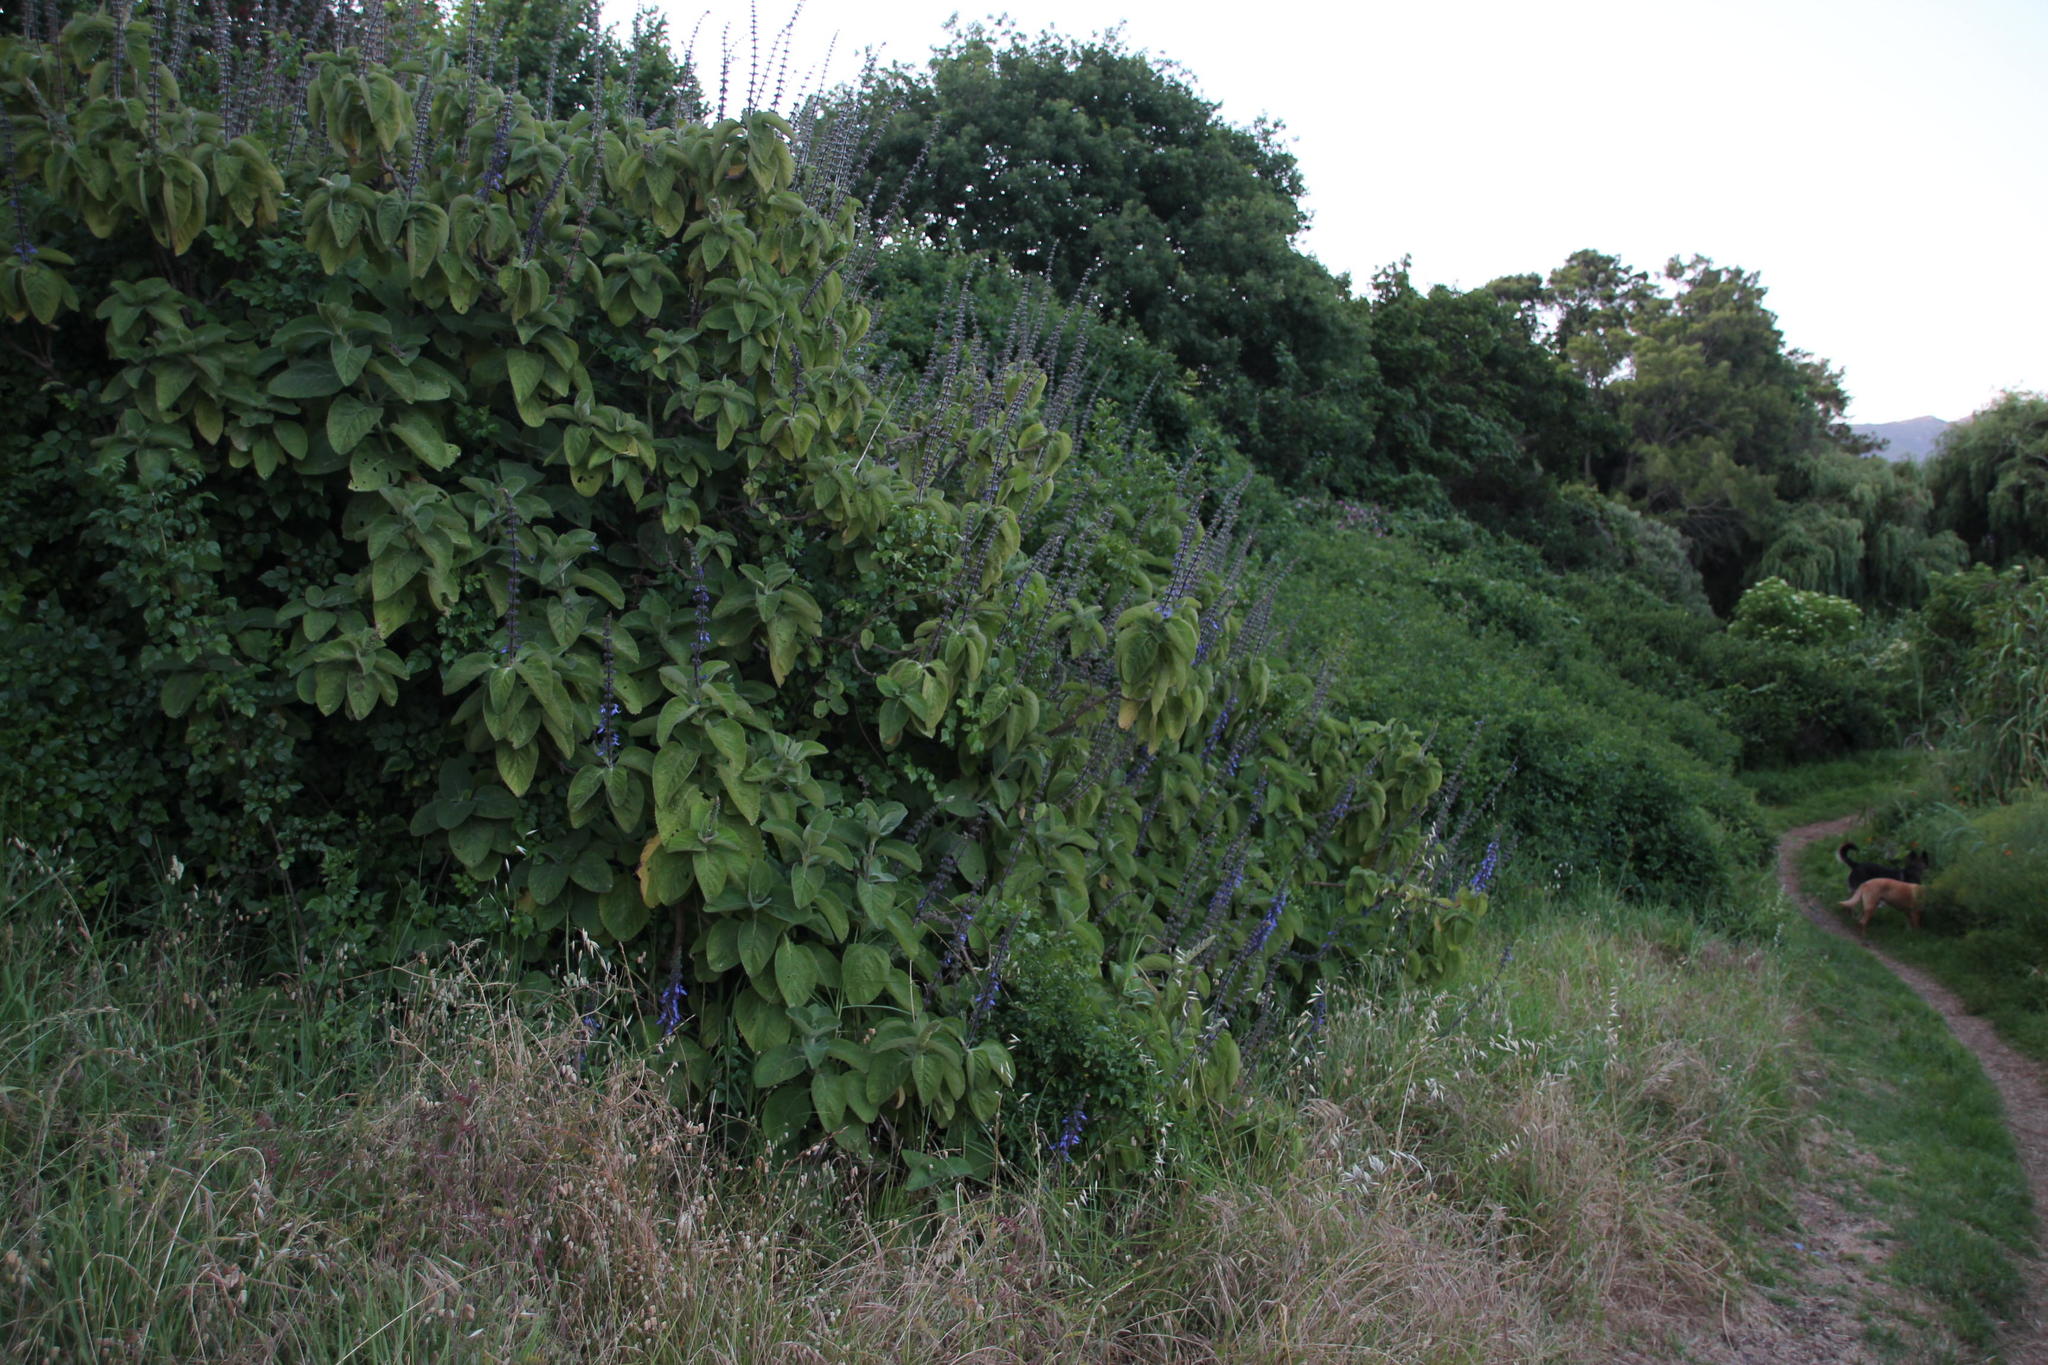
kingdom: Plantae
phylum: Tracheophyta
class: Magnoliopsida
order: Lamiales
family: Lamiaceae
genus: Coleus
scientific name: Coleus barbatus
